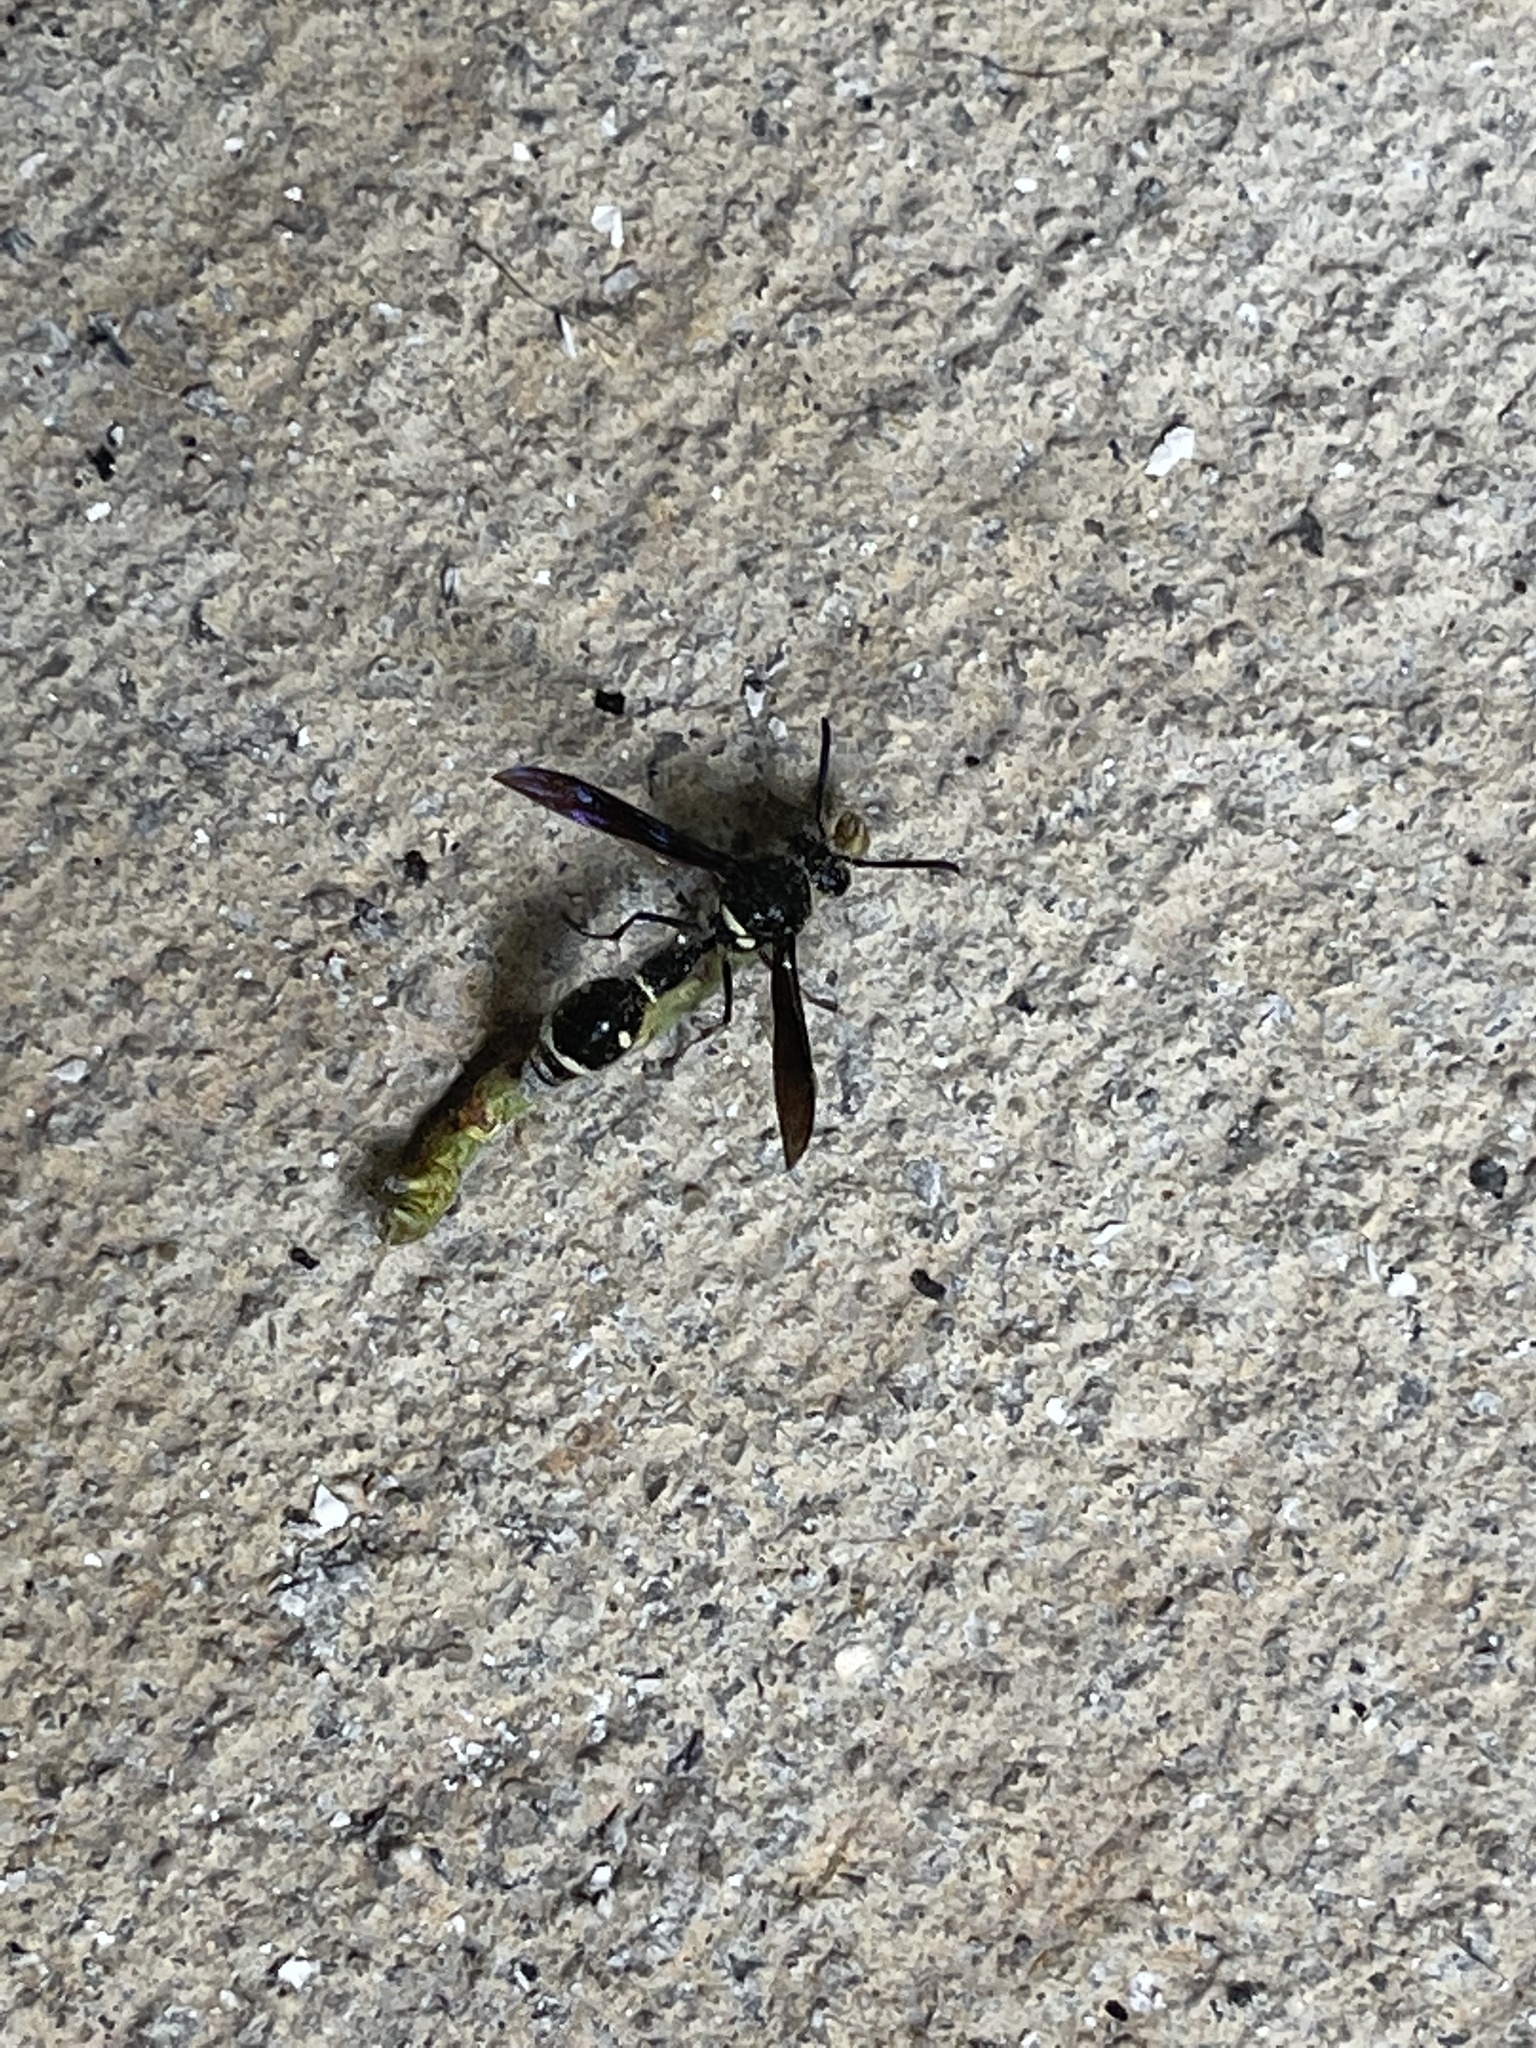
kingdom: Animalia
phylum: Arthropoda
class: Insecta
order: Hymenoptera
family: Vespidae
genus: Eumenes
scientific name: Eumenes fraternus
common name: Fraternal potter wasp
